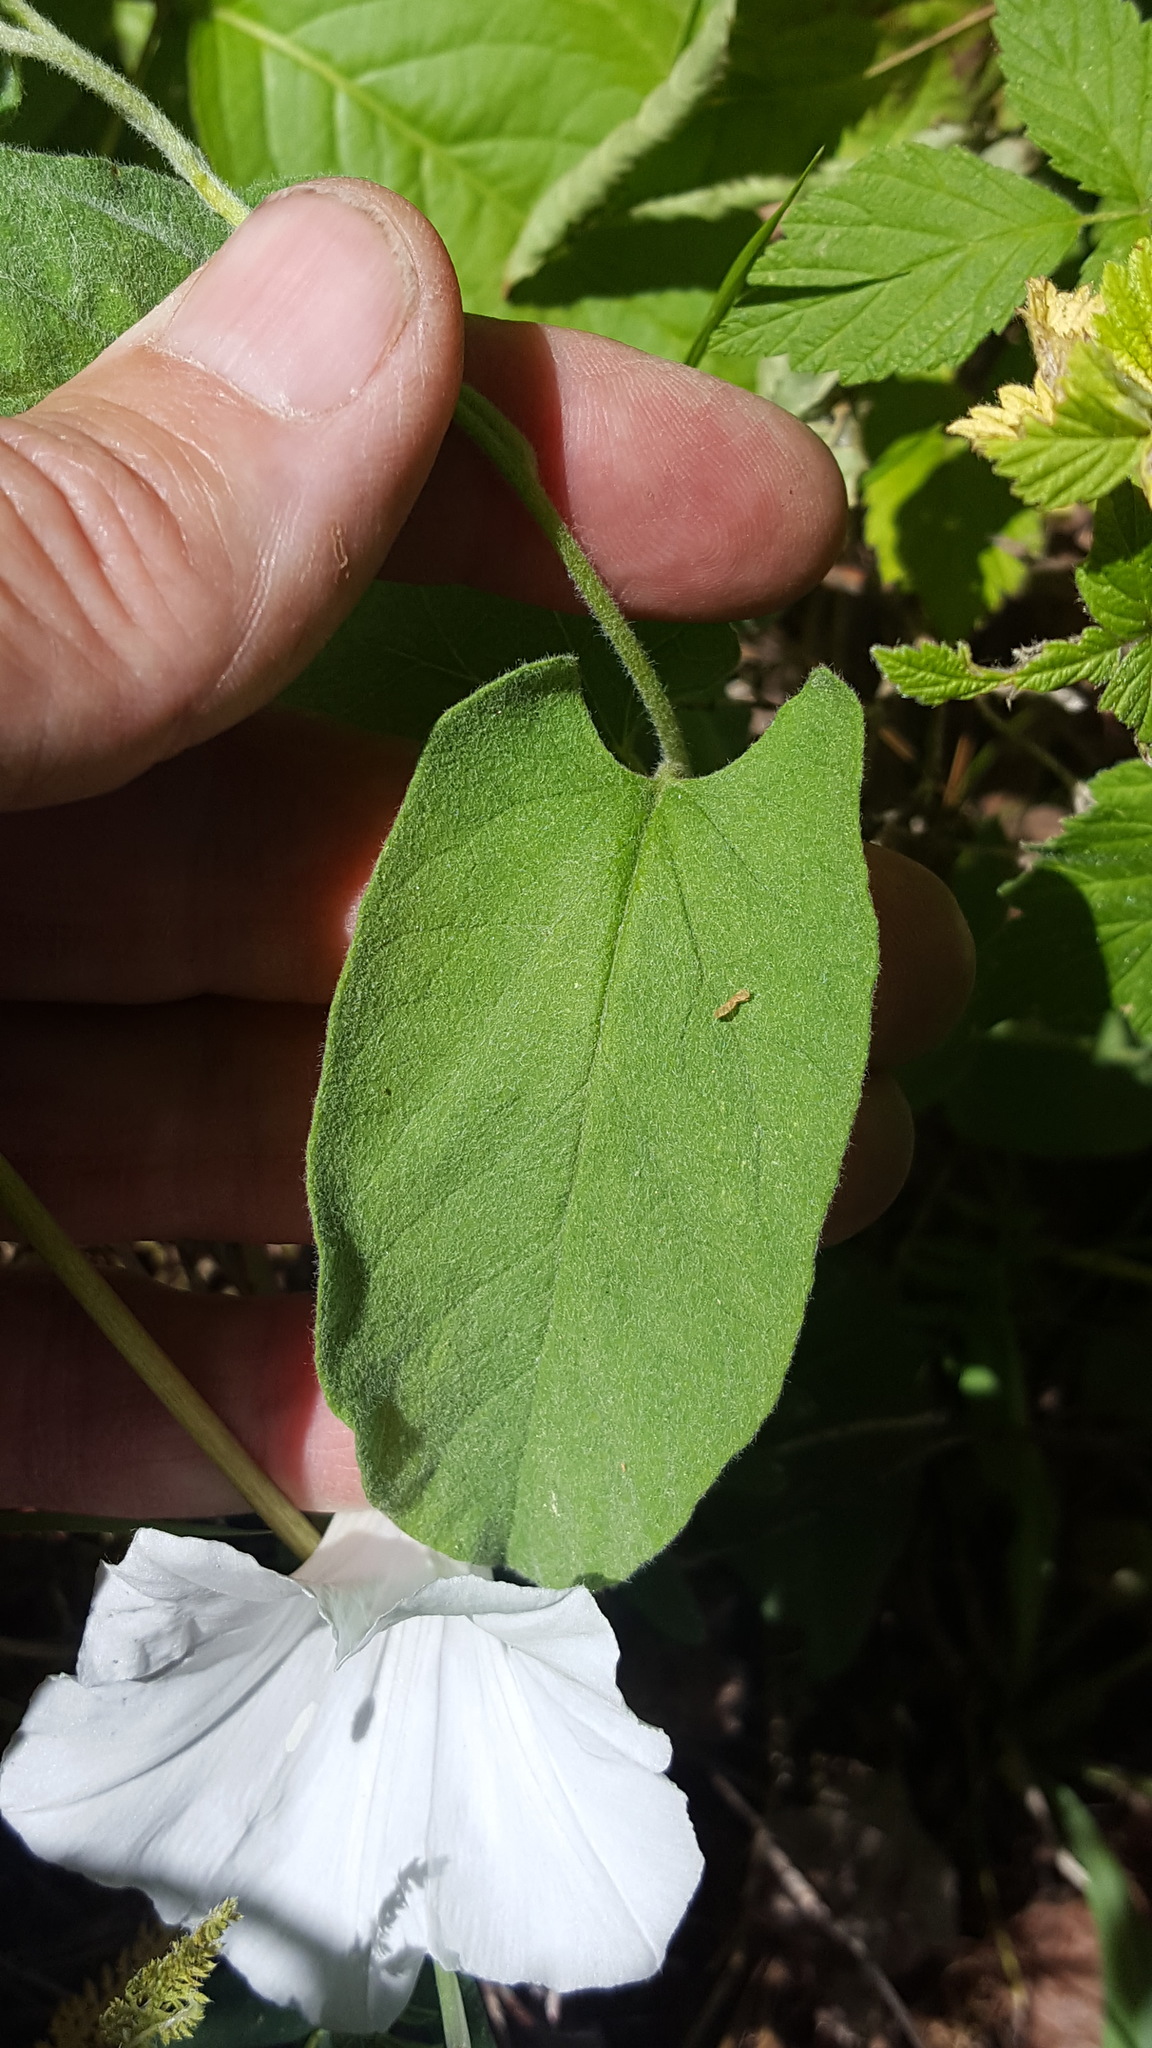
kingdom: Plantae
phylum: Tracheophyta
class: Magnoliopsida
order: Solanales
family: Convolvulaceae
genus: Calystegia
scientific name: Calystegia spithamaea
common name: Dwarf bindweed
